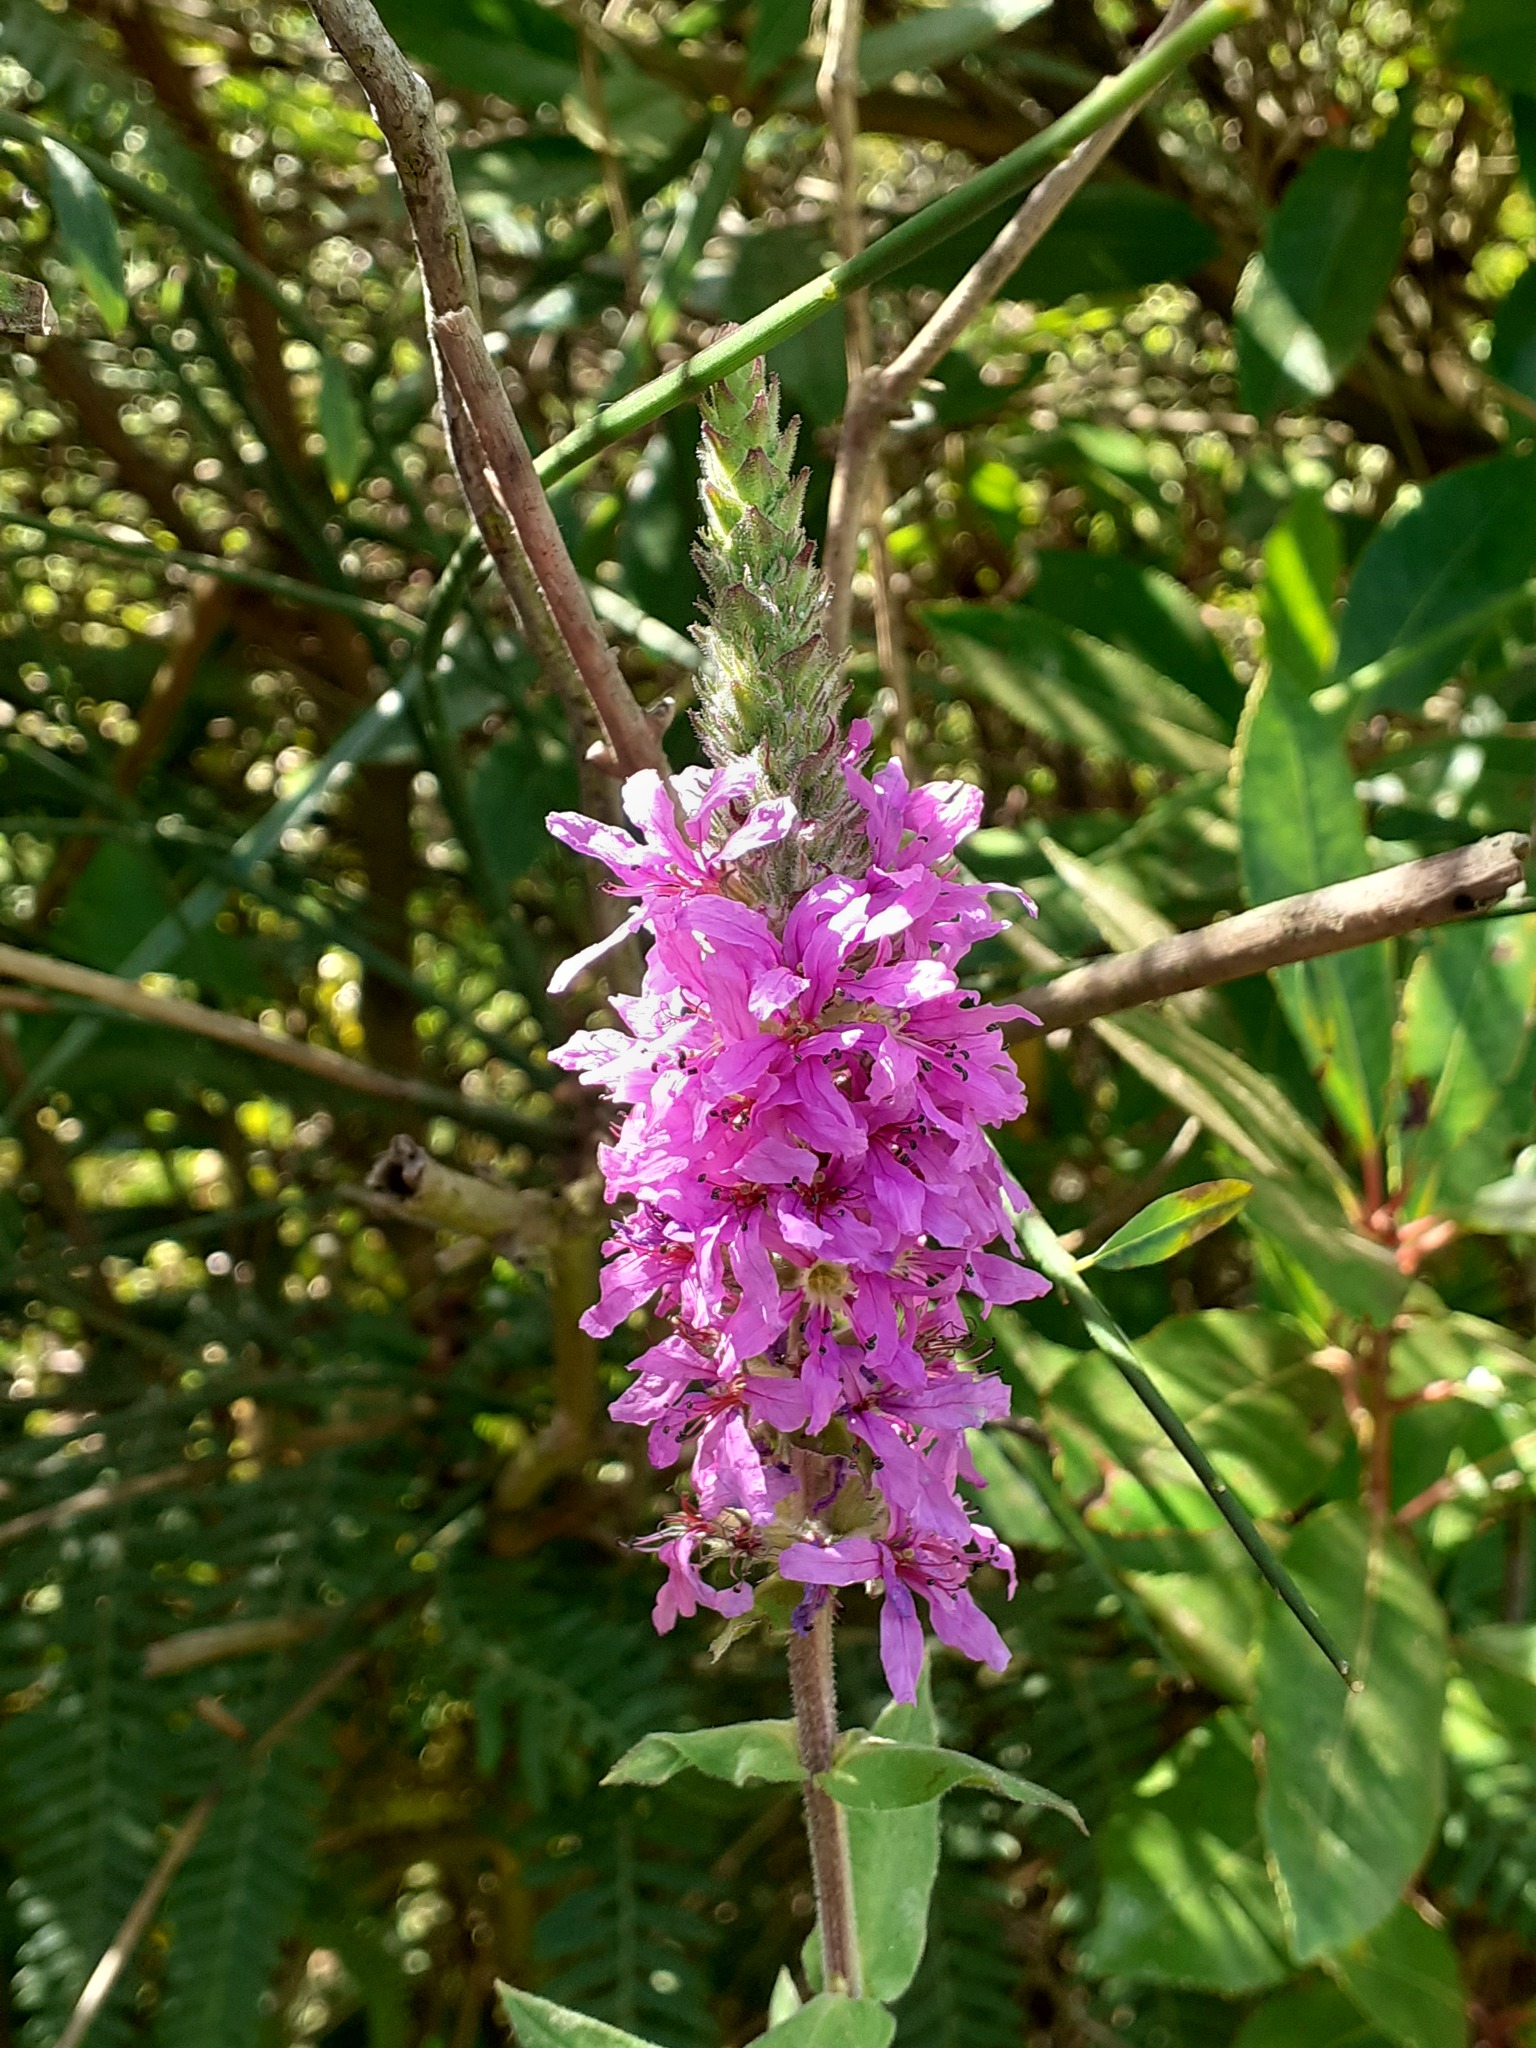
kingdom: Plantae
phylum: Tracheophyta
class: Magnoliopsida
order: Myrtales
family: Lythraceae
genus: Lythrum
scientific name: Lythrum salicaria
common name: Purple loosestrife
